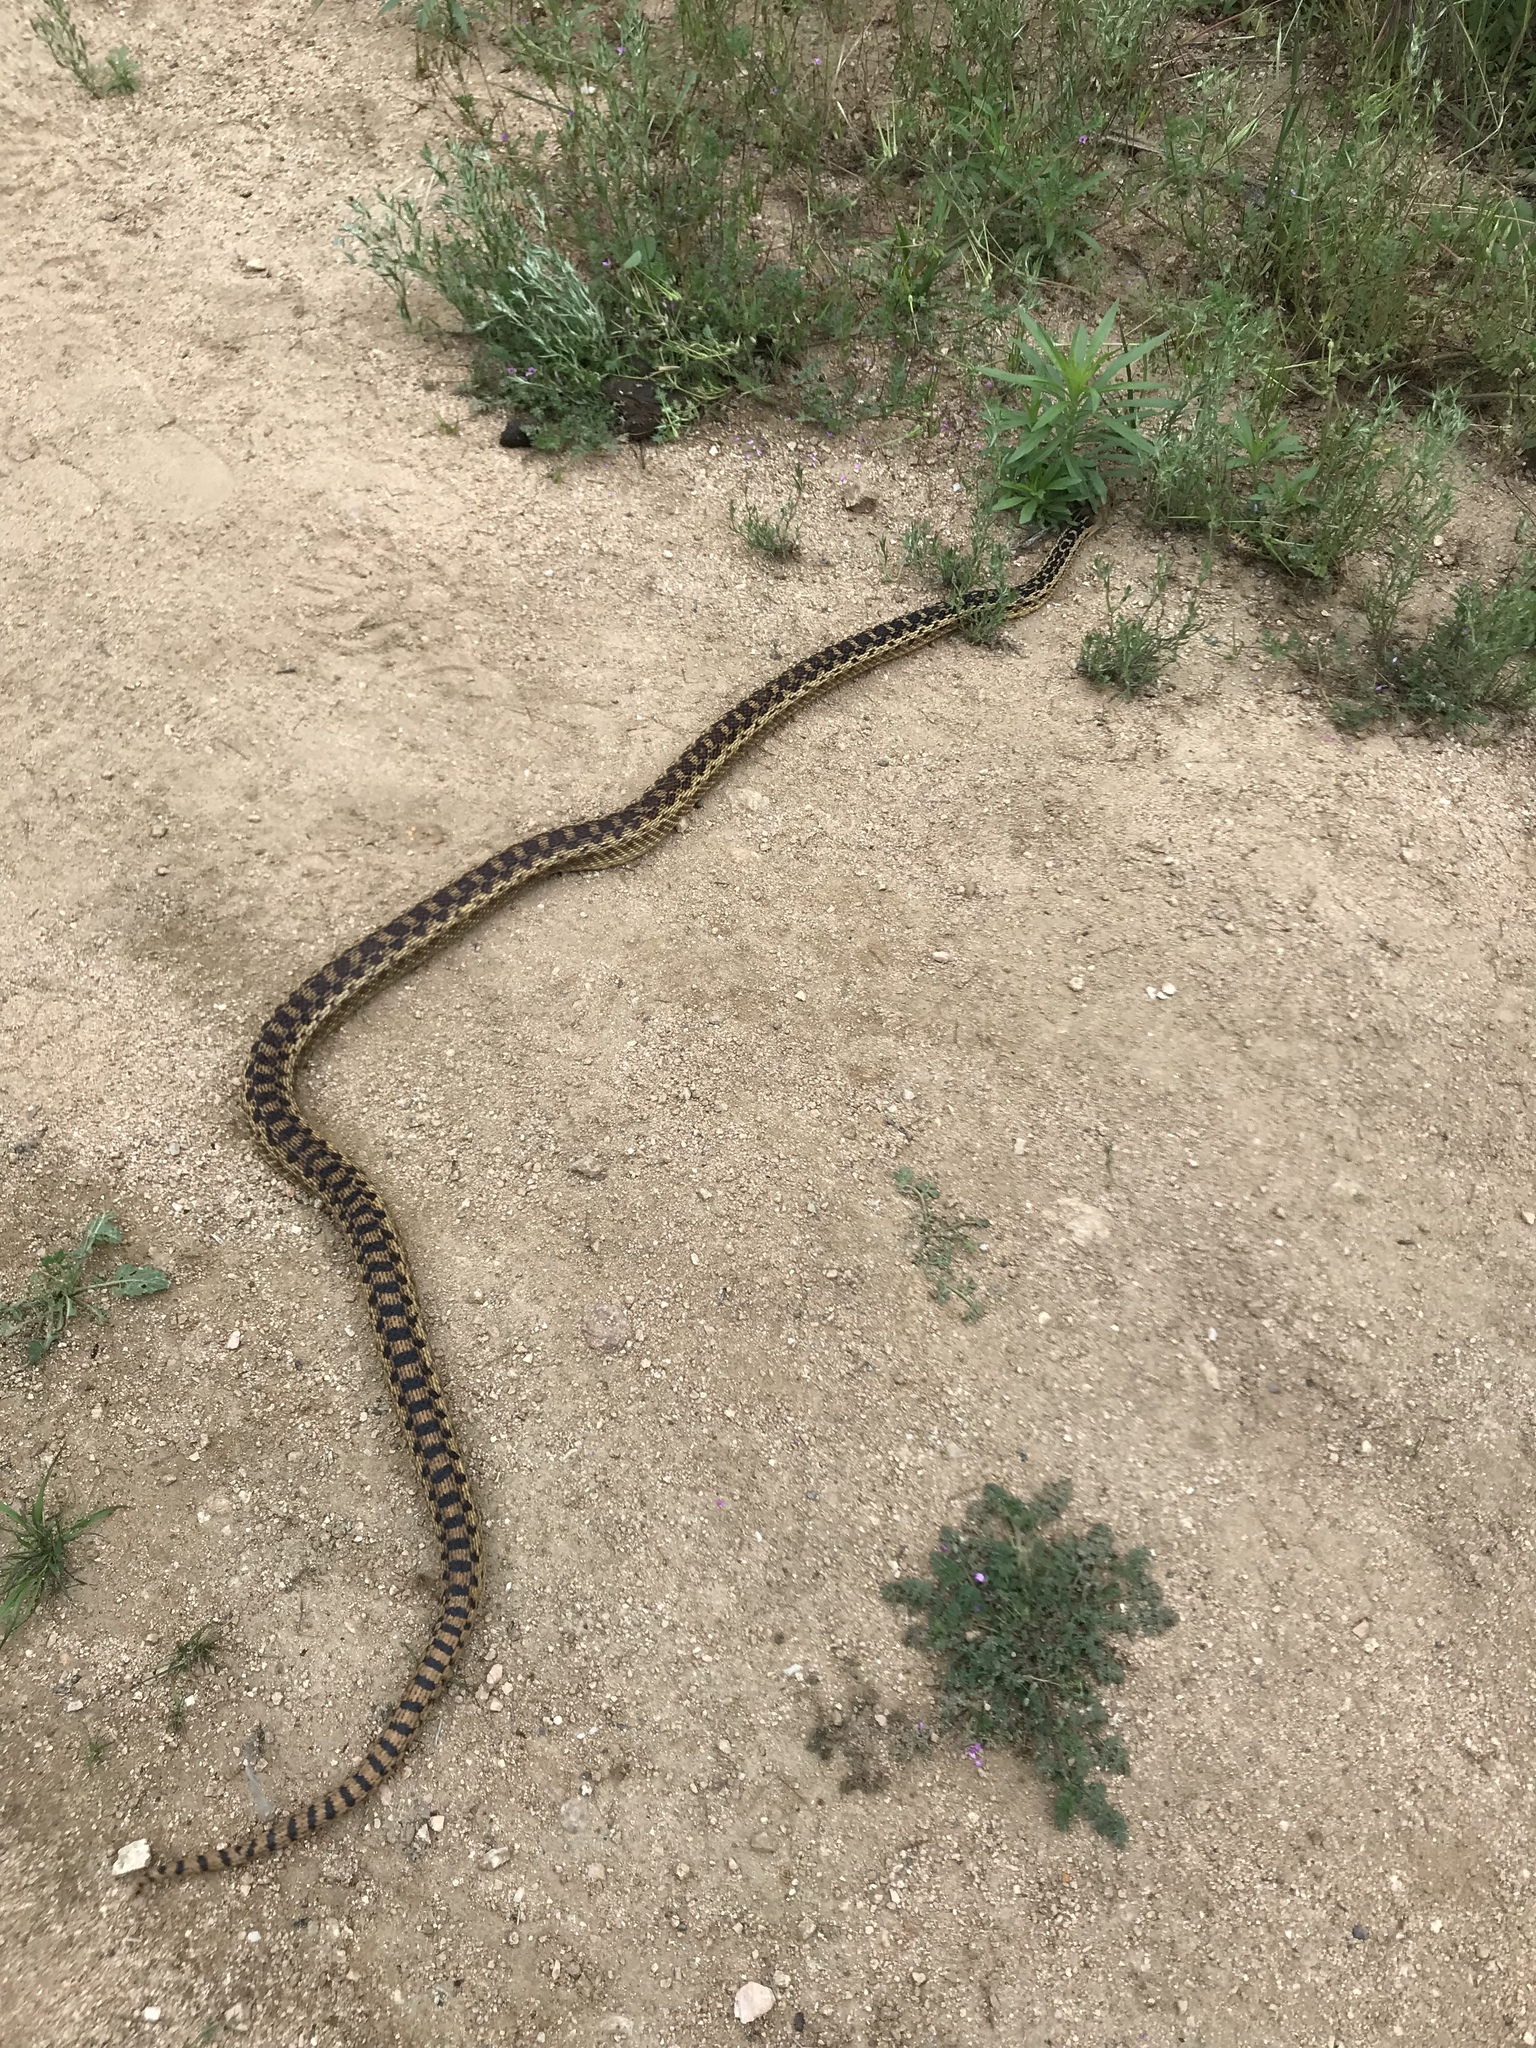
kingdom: Animalia
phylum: Chordata
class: Squamata
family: Colubridae
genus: Pituophis
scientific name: Pituophis catenifer
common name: Gopher snake
